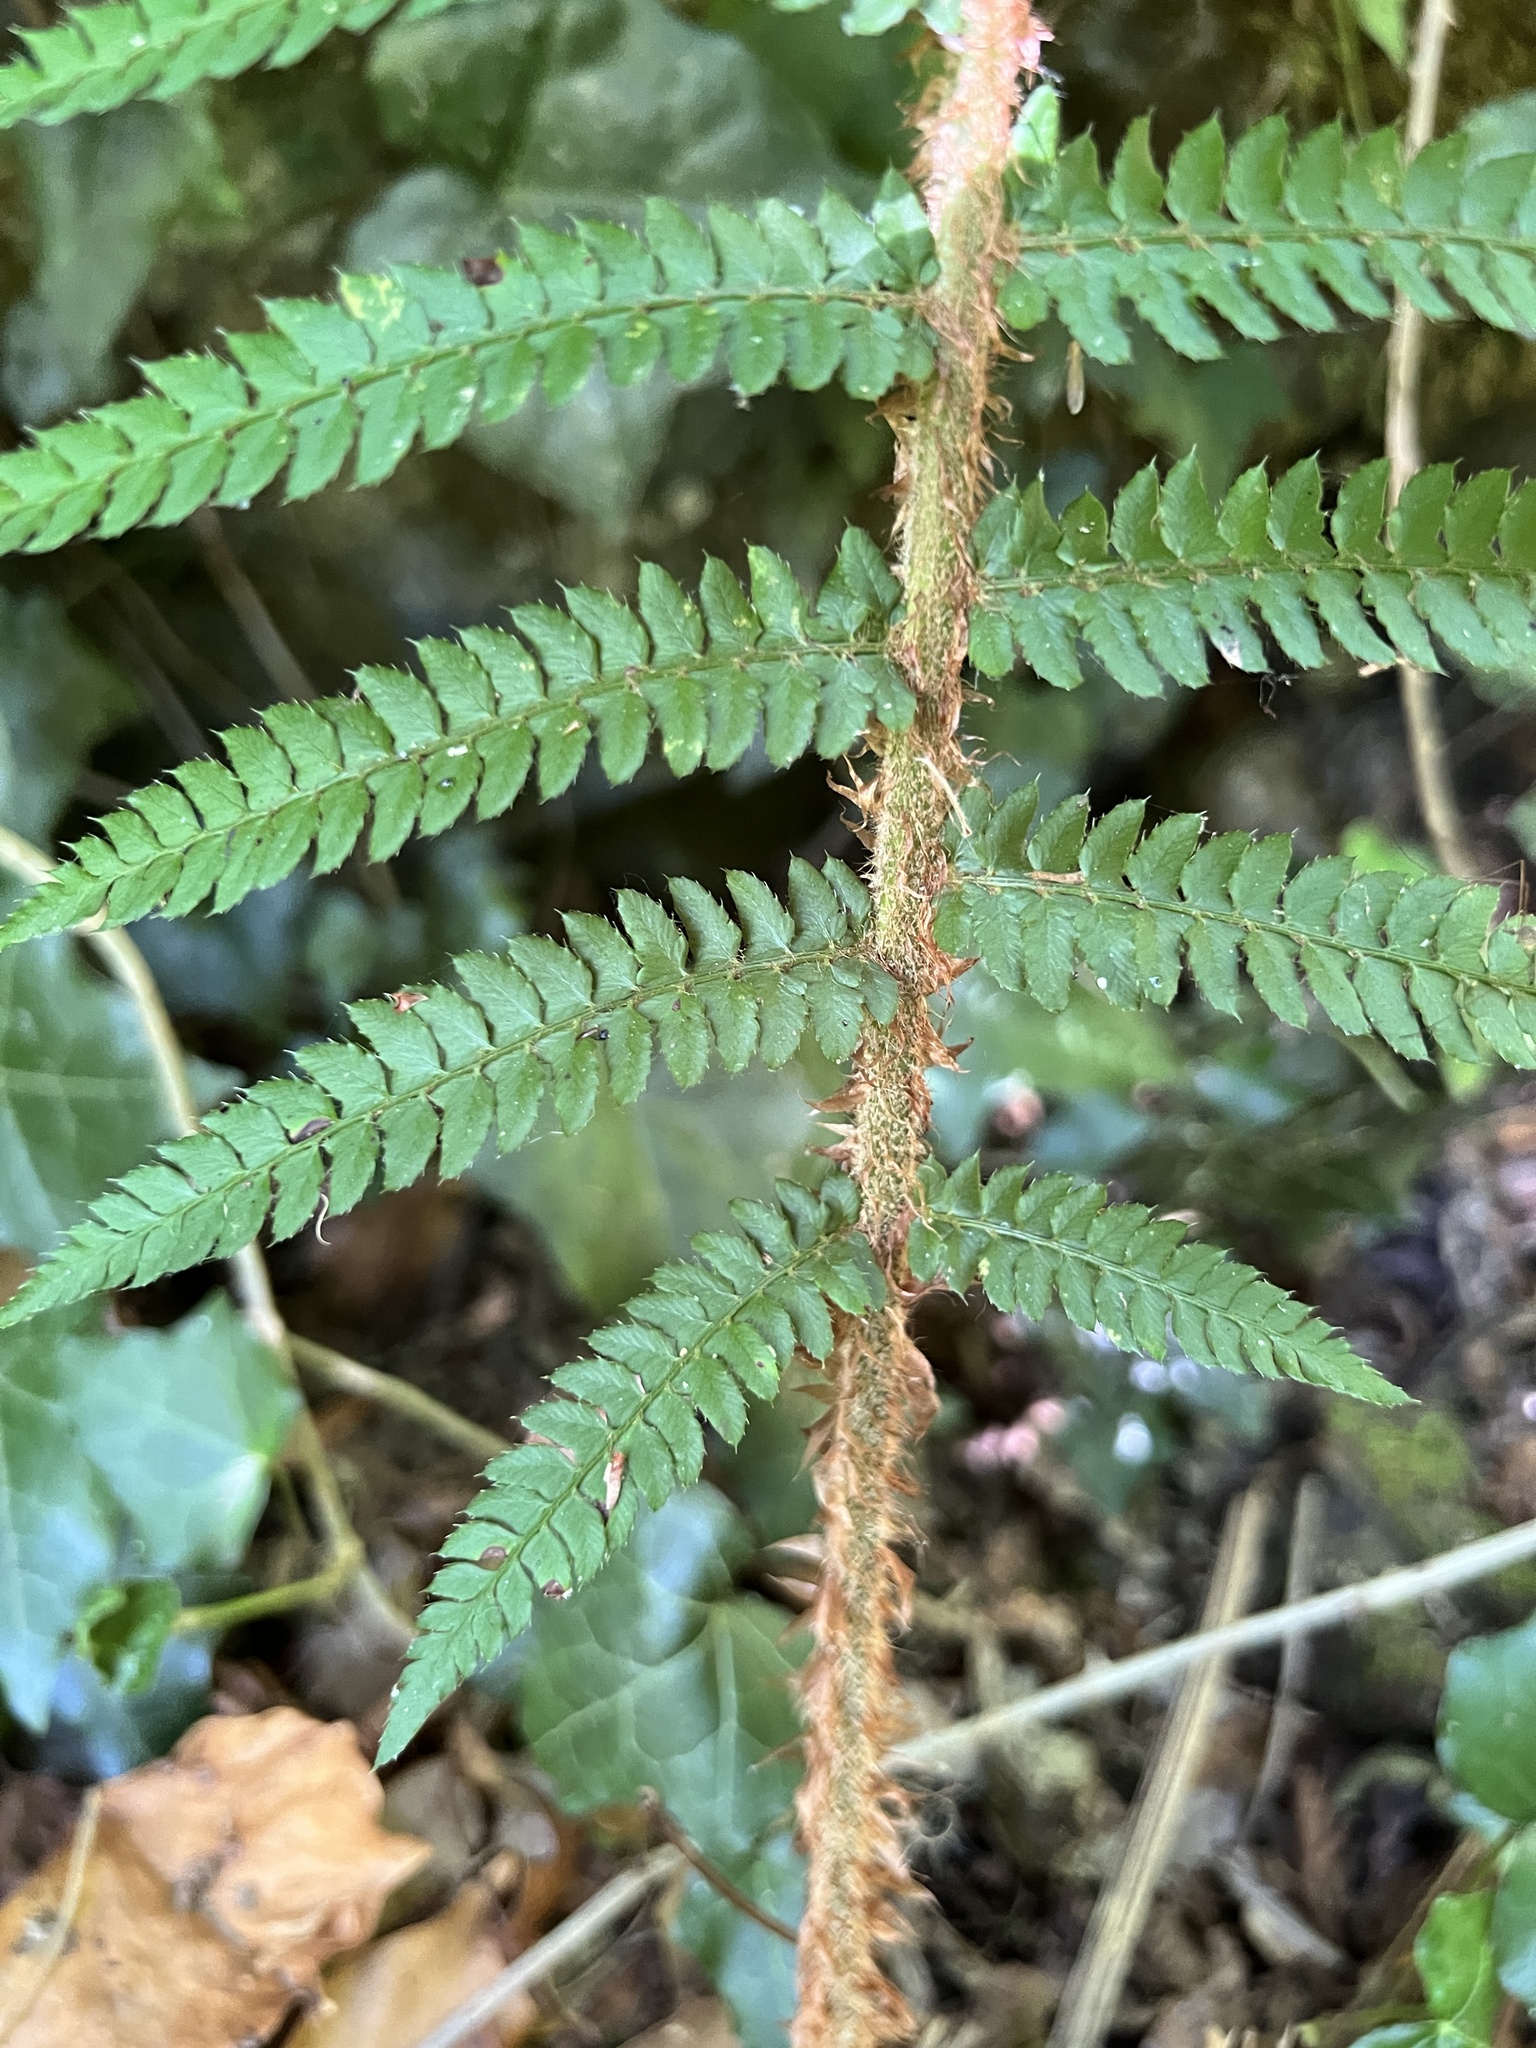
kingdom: Plantae
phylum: Tracheophyta
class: Polypodiopsida
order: Polypodiales
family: Dryopteridaceae
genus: Polystichum
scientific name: Polystichum setiferum
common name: Soft shield-fern
